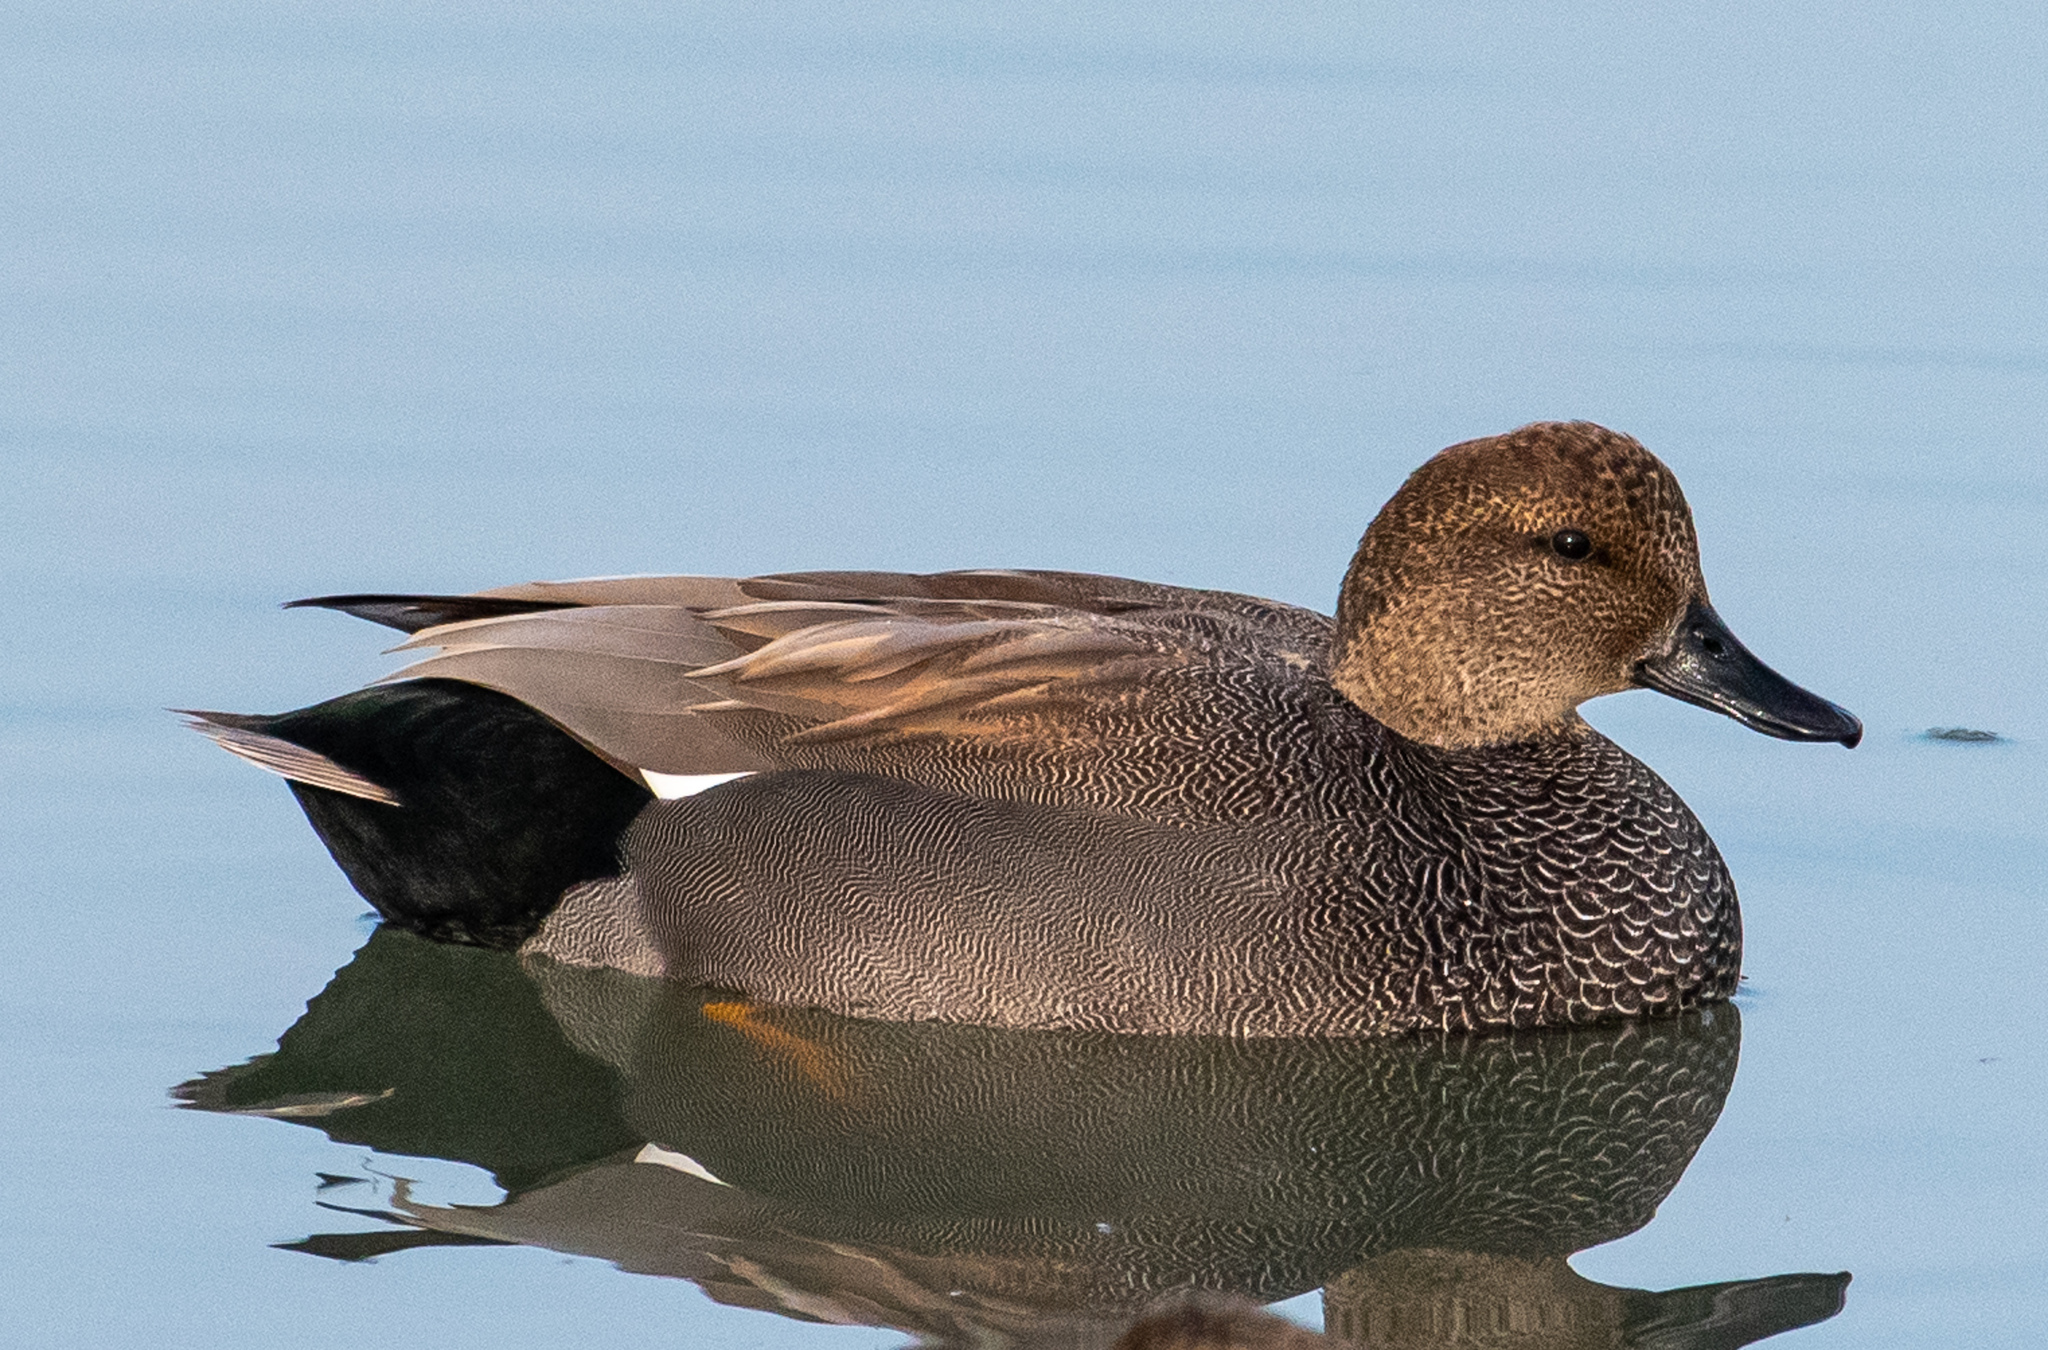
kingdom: Animalia
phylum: Chordata
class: Aves
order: Anseriformes
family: Anatidae
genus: Mareca
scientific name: Mareca strepera
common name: Gadwall
